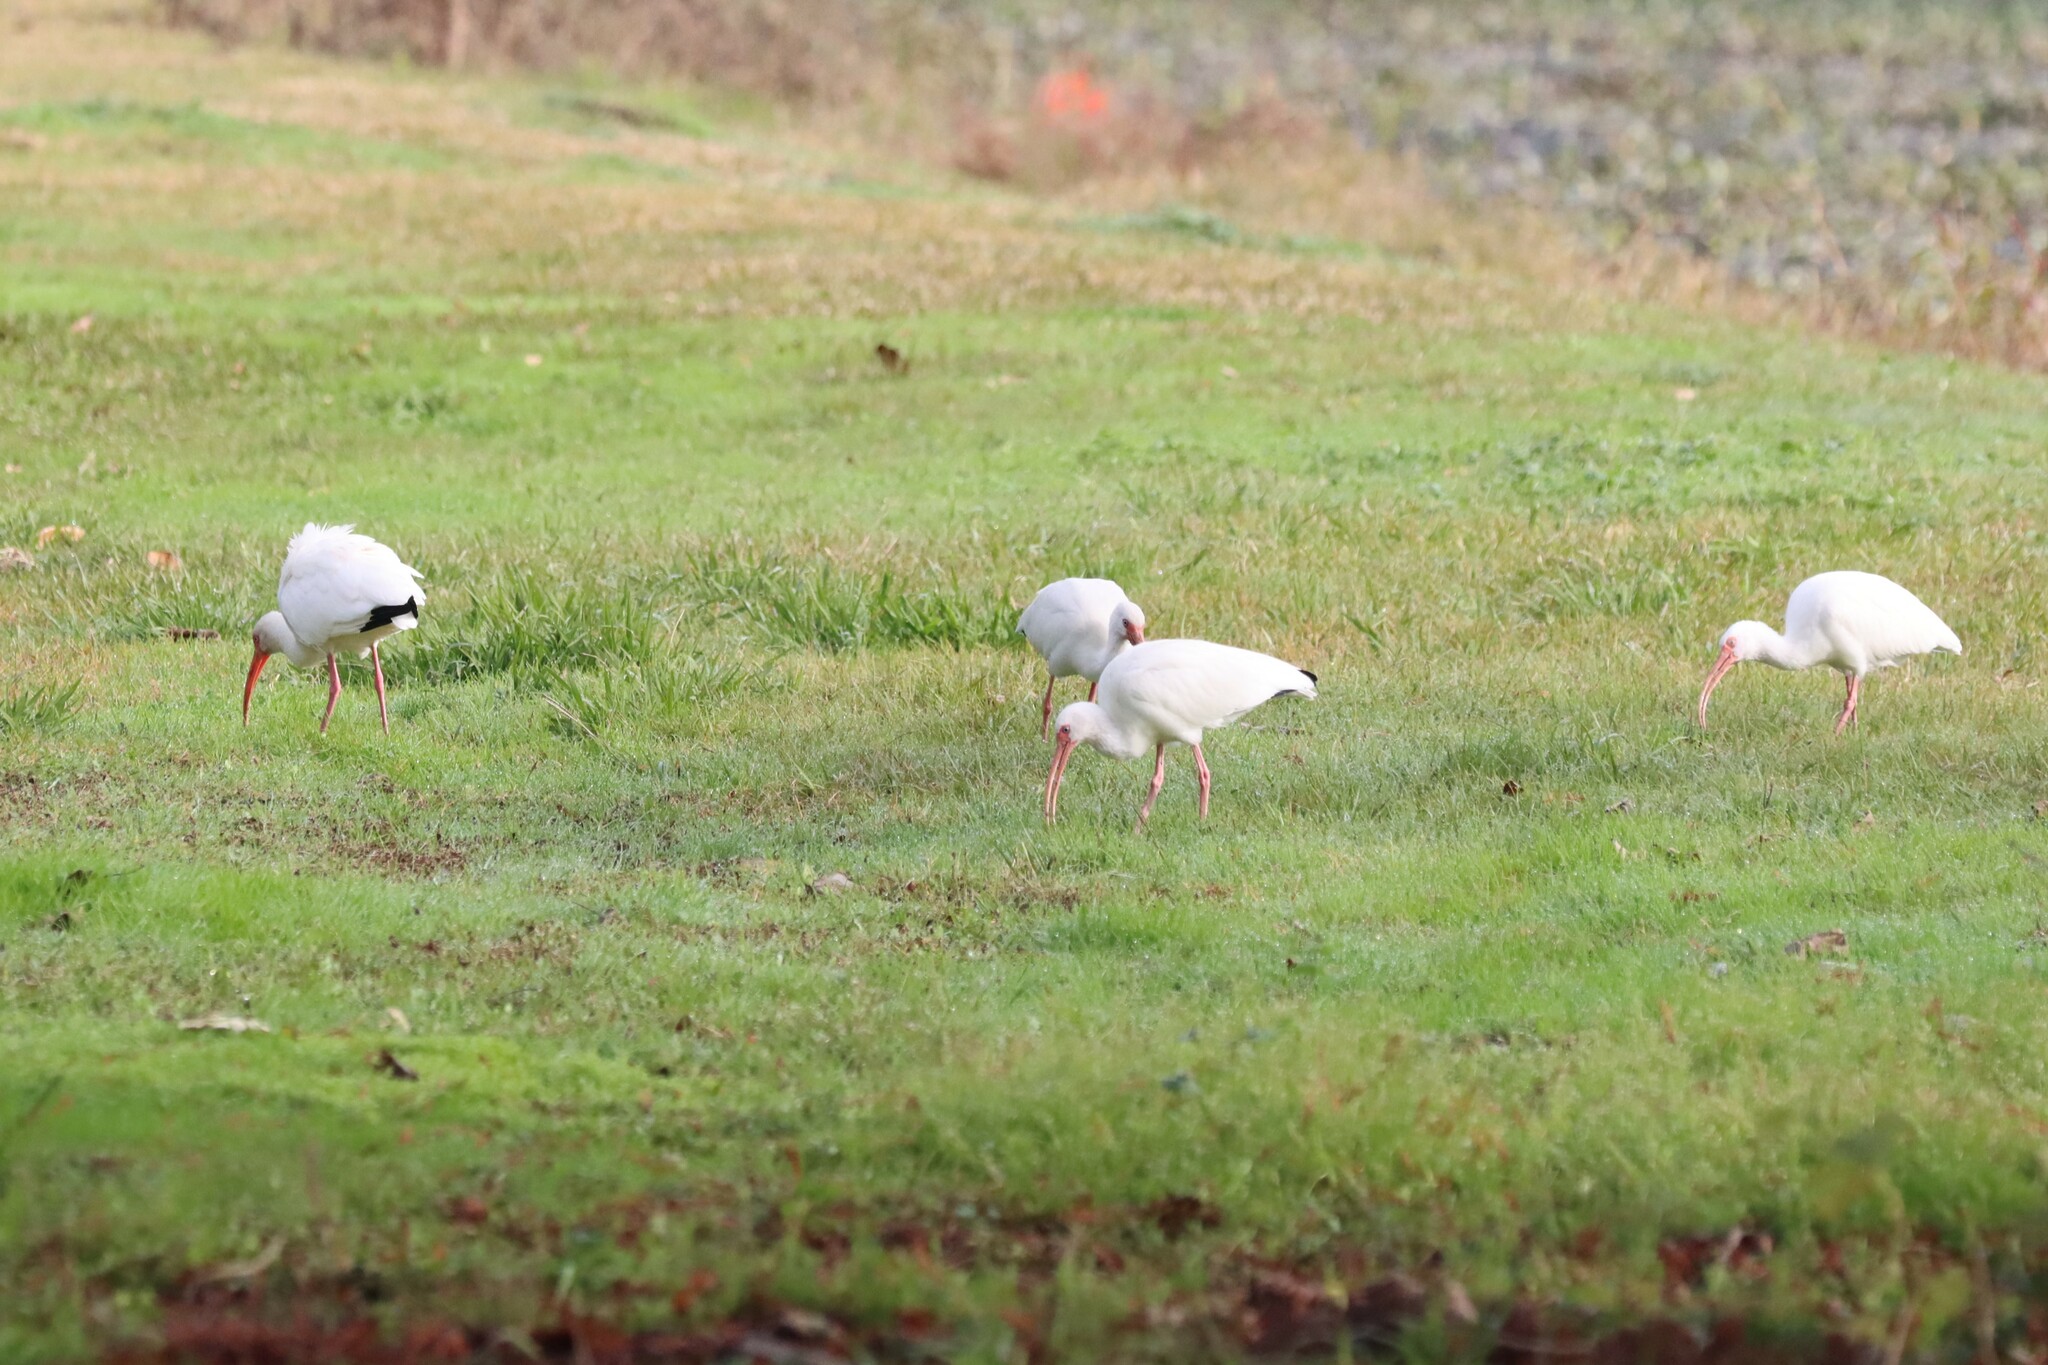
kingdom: Animalia
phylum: Chordata
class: Aves
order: Pelecaniformes
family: Threskiornithidae
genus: Eudocimus
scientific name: Eudocimus albus
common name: White ibis
